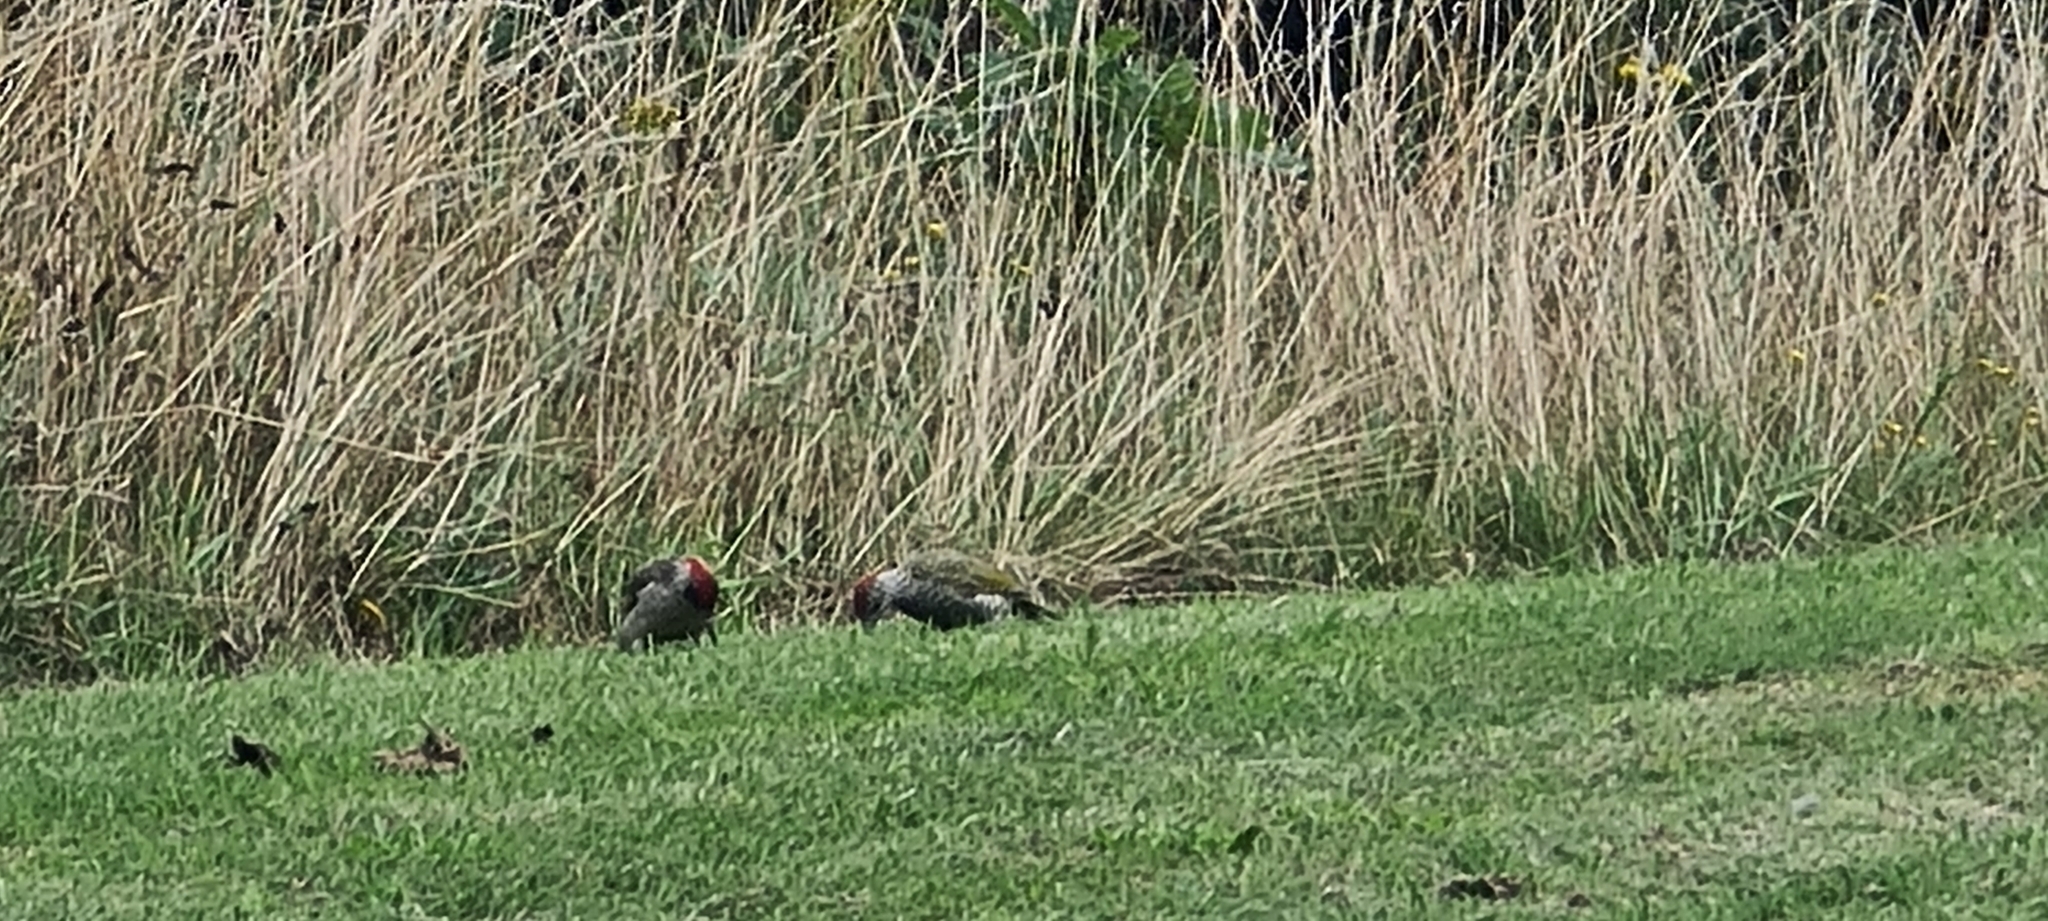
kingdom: Animalia
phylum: Chordata
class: Aves
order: Piciformes
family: Picidae
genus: Picus
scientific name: Picus viridis
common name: European green woodpecker
